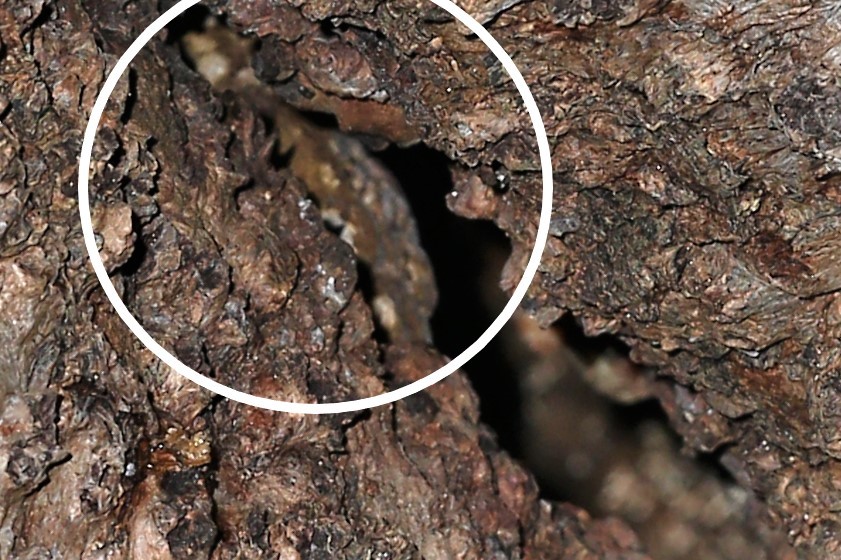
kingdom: Animalia
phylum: Chordata
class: Squamata
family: Diplodactylidae
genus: Rhacodactylus
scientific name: Rhacodactylus leachianus
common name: New caledonia giant gecko
